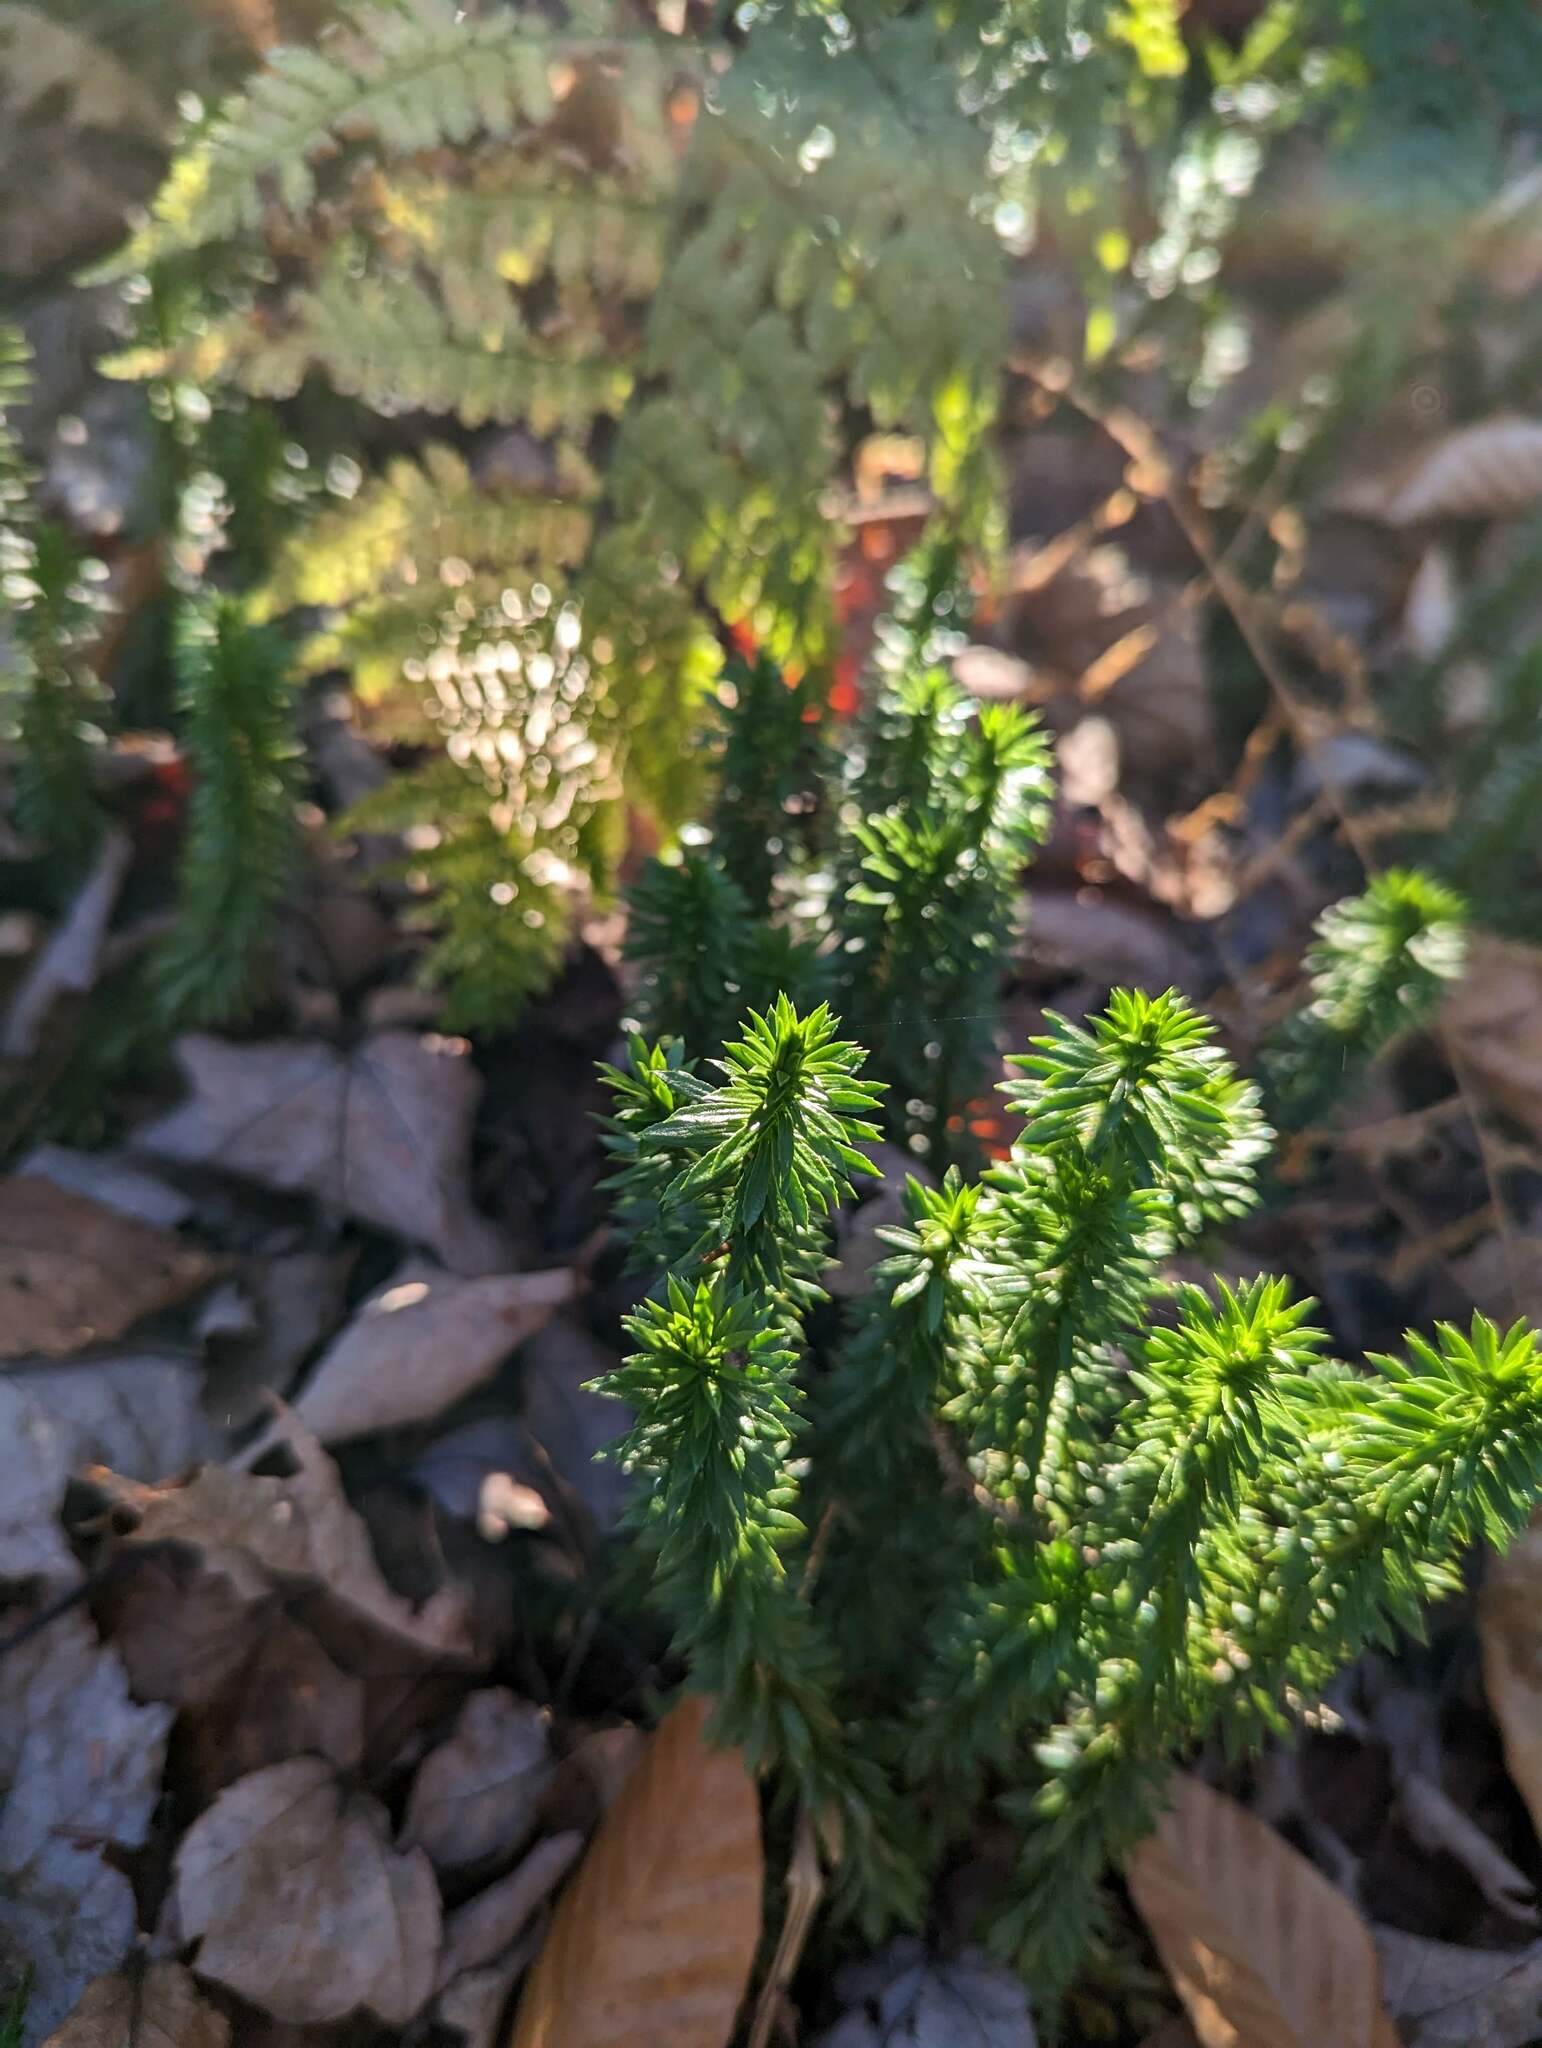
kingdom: Plantae
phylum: Tracheophyta
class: Lycopodiopsida
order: Lycopodiales
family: Lycopodiaceae
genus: Huperzia
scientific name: Huperzia lucidula
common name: Shining clubmoss
